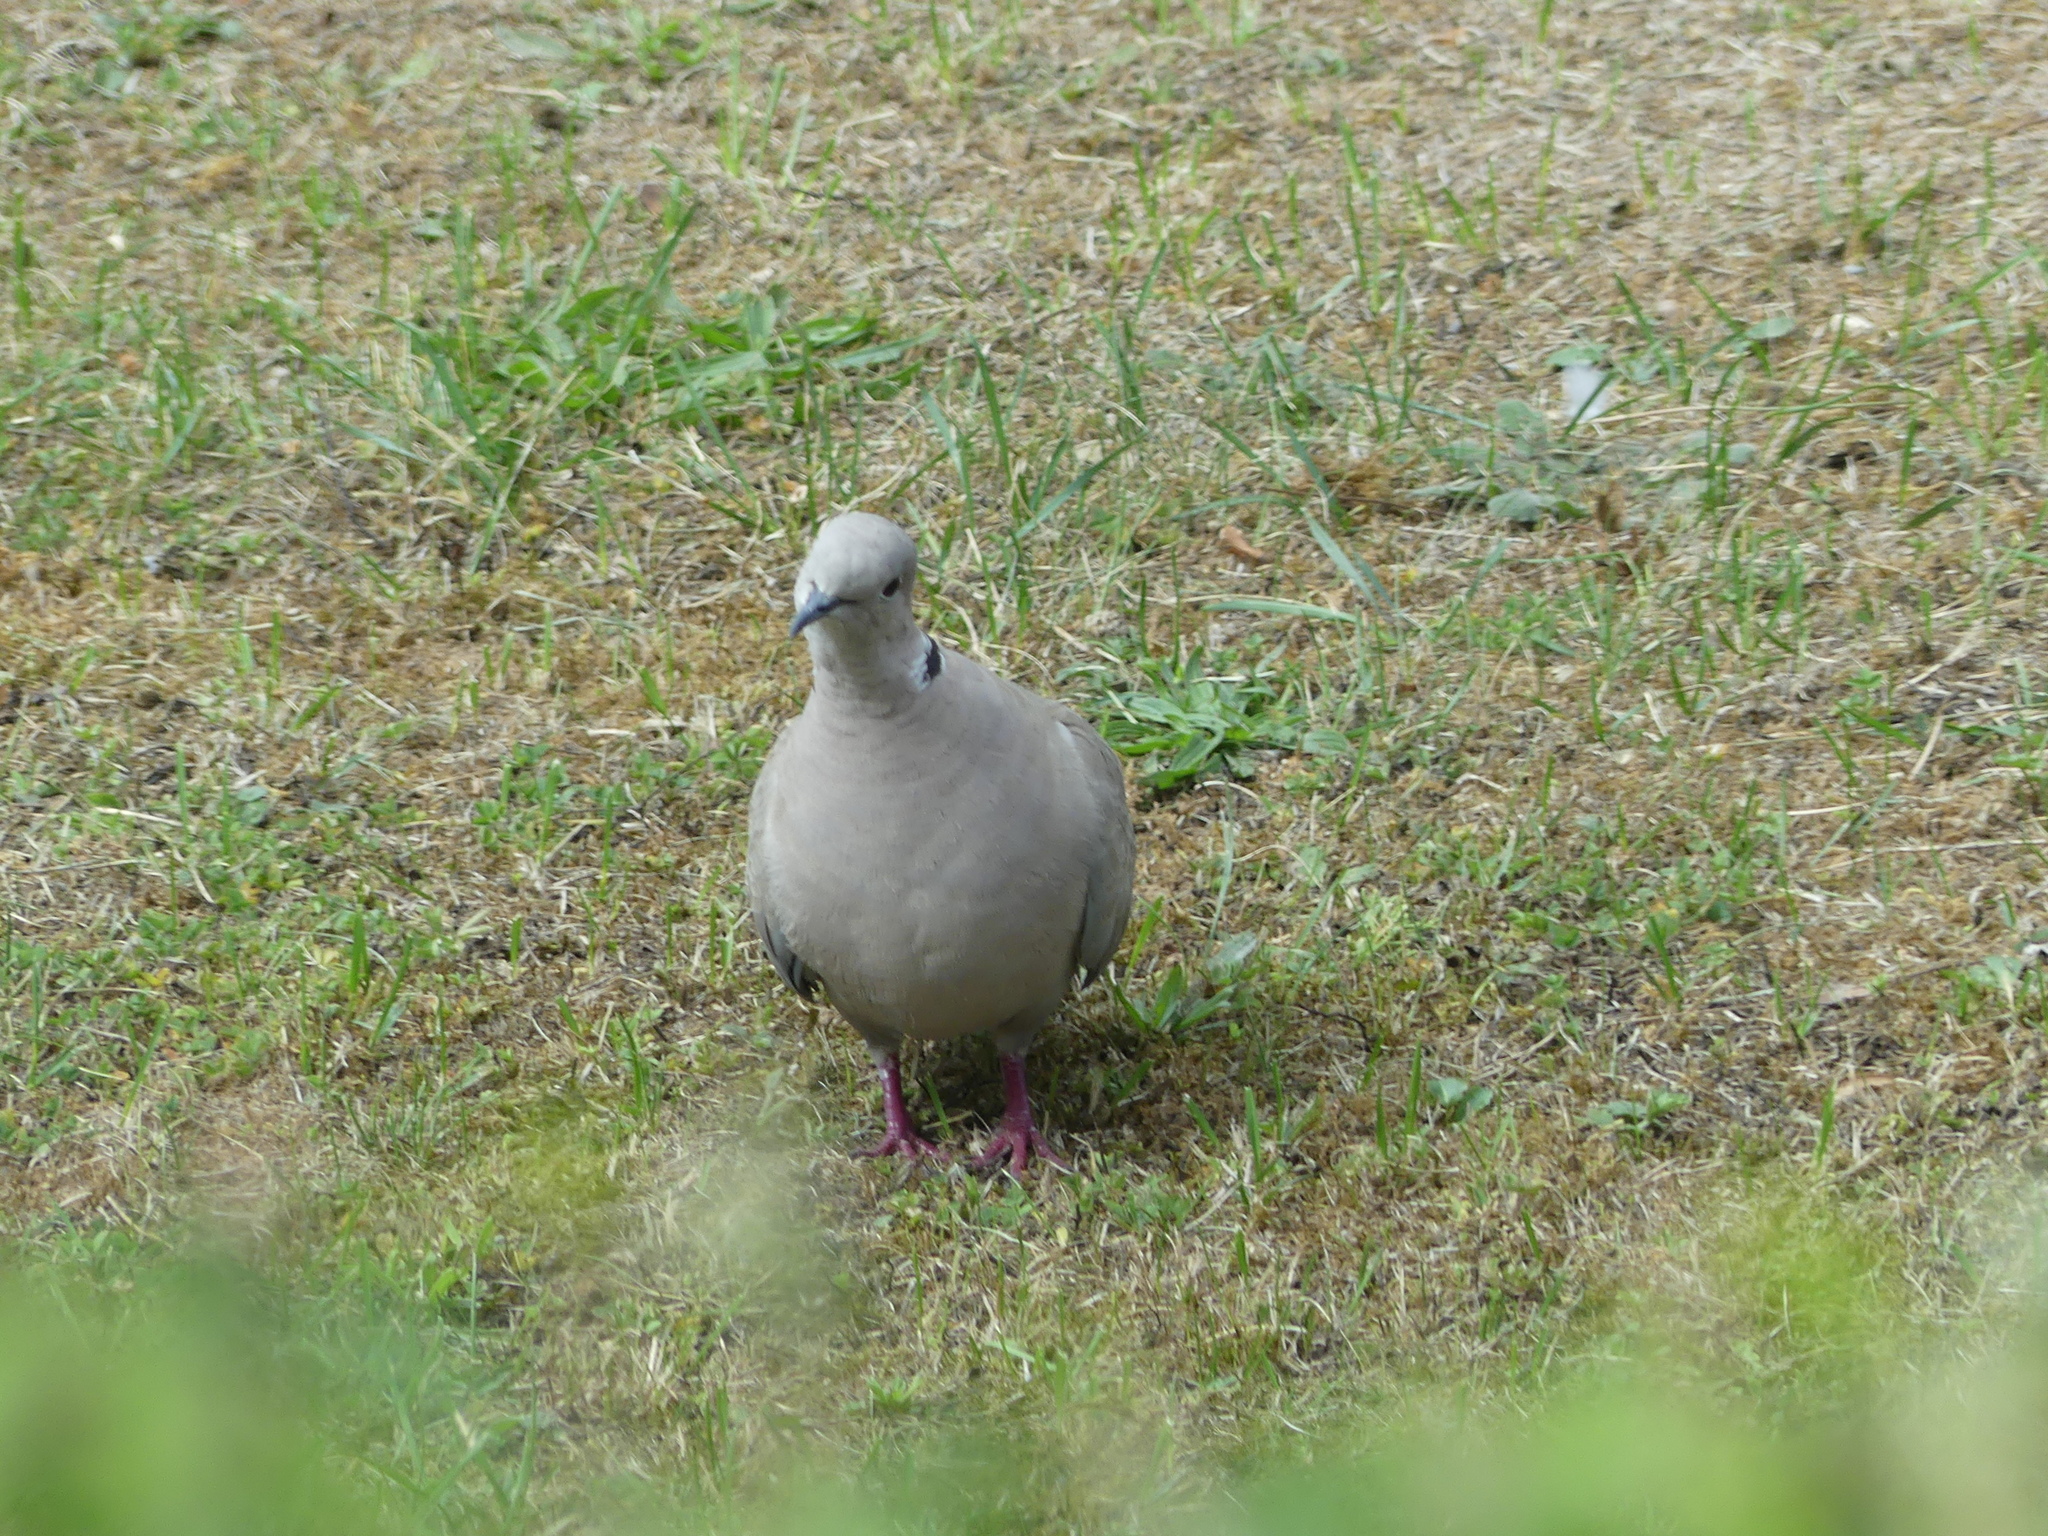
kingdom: Animalia
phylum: Chordata
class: Aves
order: Columbiformes
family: Columbidae
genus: Streptopelia
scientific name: Streptopelia decaocto
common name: Eurasian collared dove
